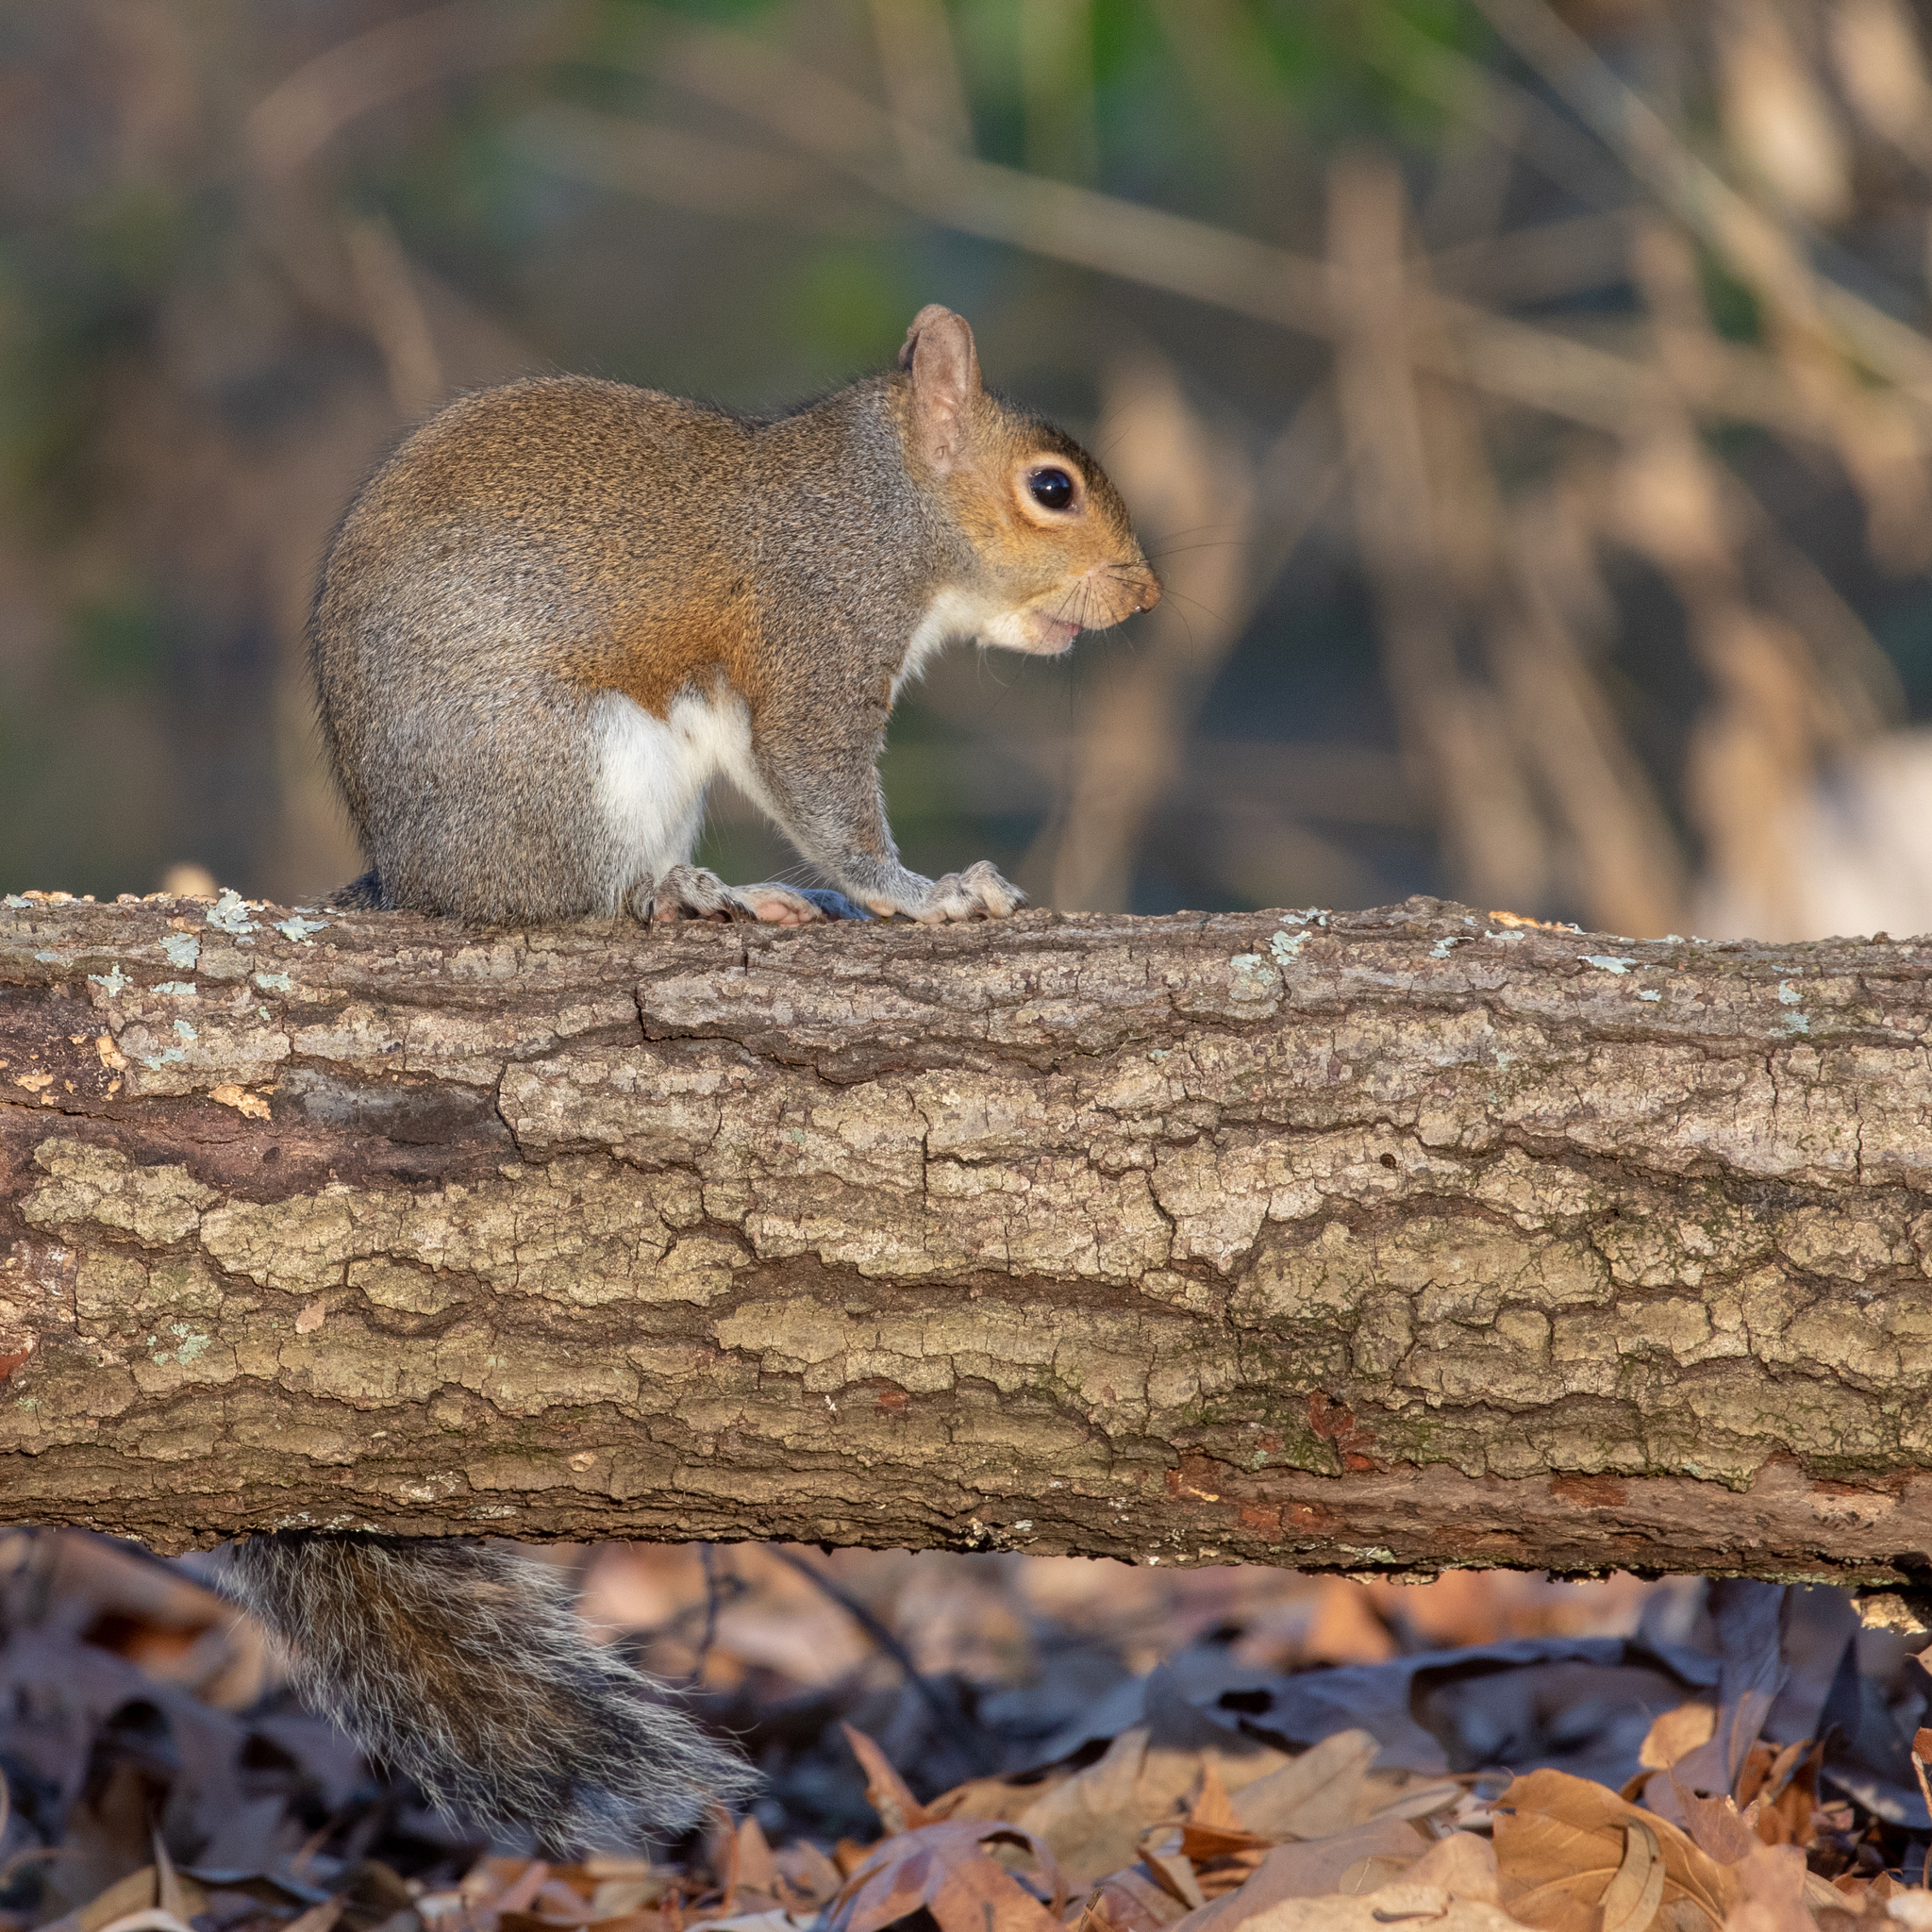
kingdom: Animalia
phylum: Chordata
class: Mammalia
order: Rodentia
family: Sciuridae
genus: Sciurus
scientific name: Sciurus carolinensis
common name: Eastern gray squirrel
